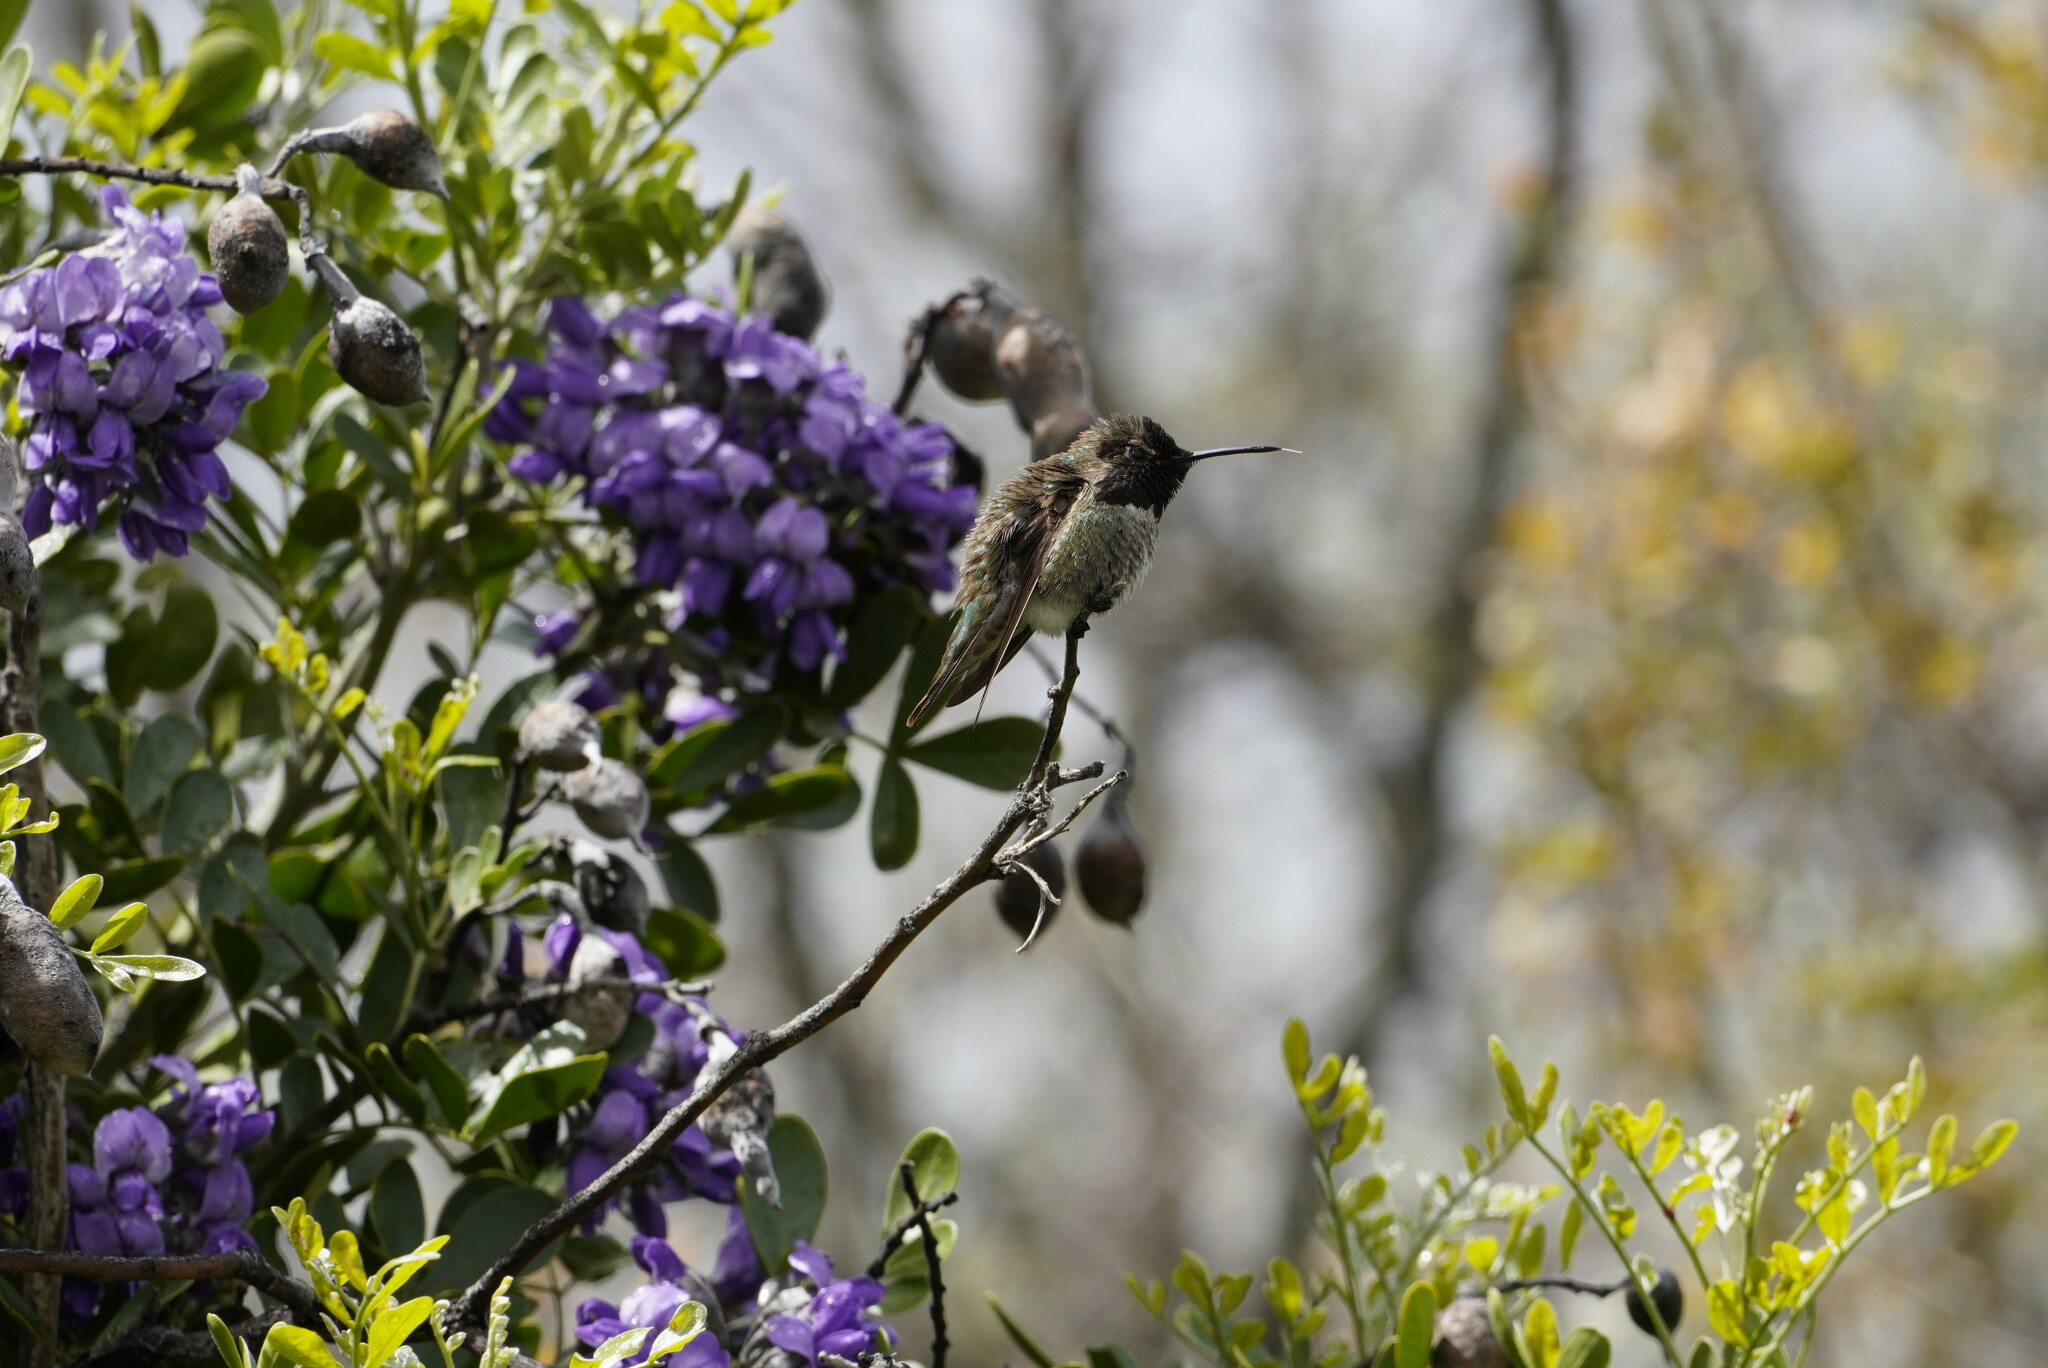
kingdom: Animalia
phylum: Chordata
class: Aves
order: Apodiformes
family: Trochilidae
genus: Calypte
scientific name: Calypte anna
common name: Anna's hummingbird
